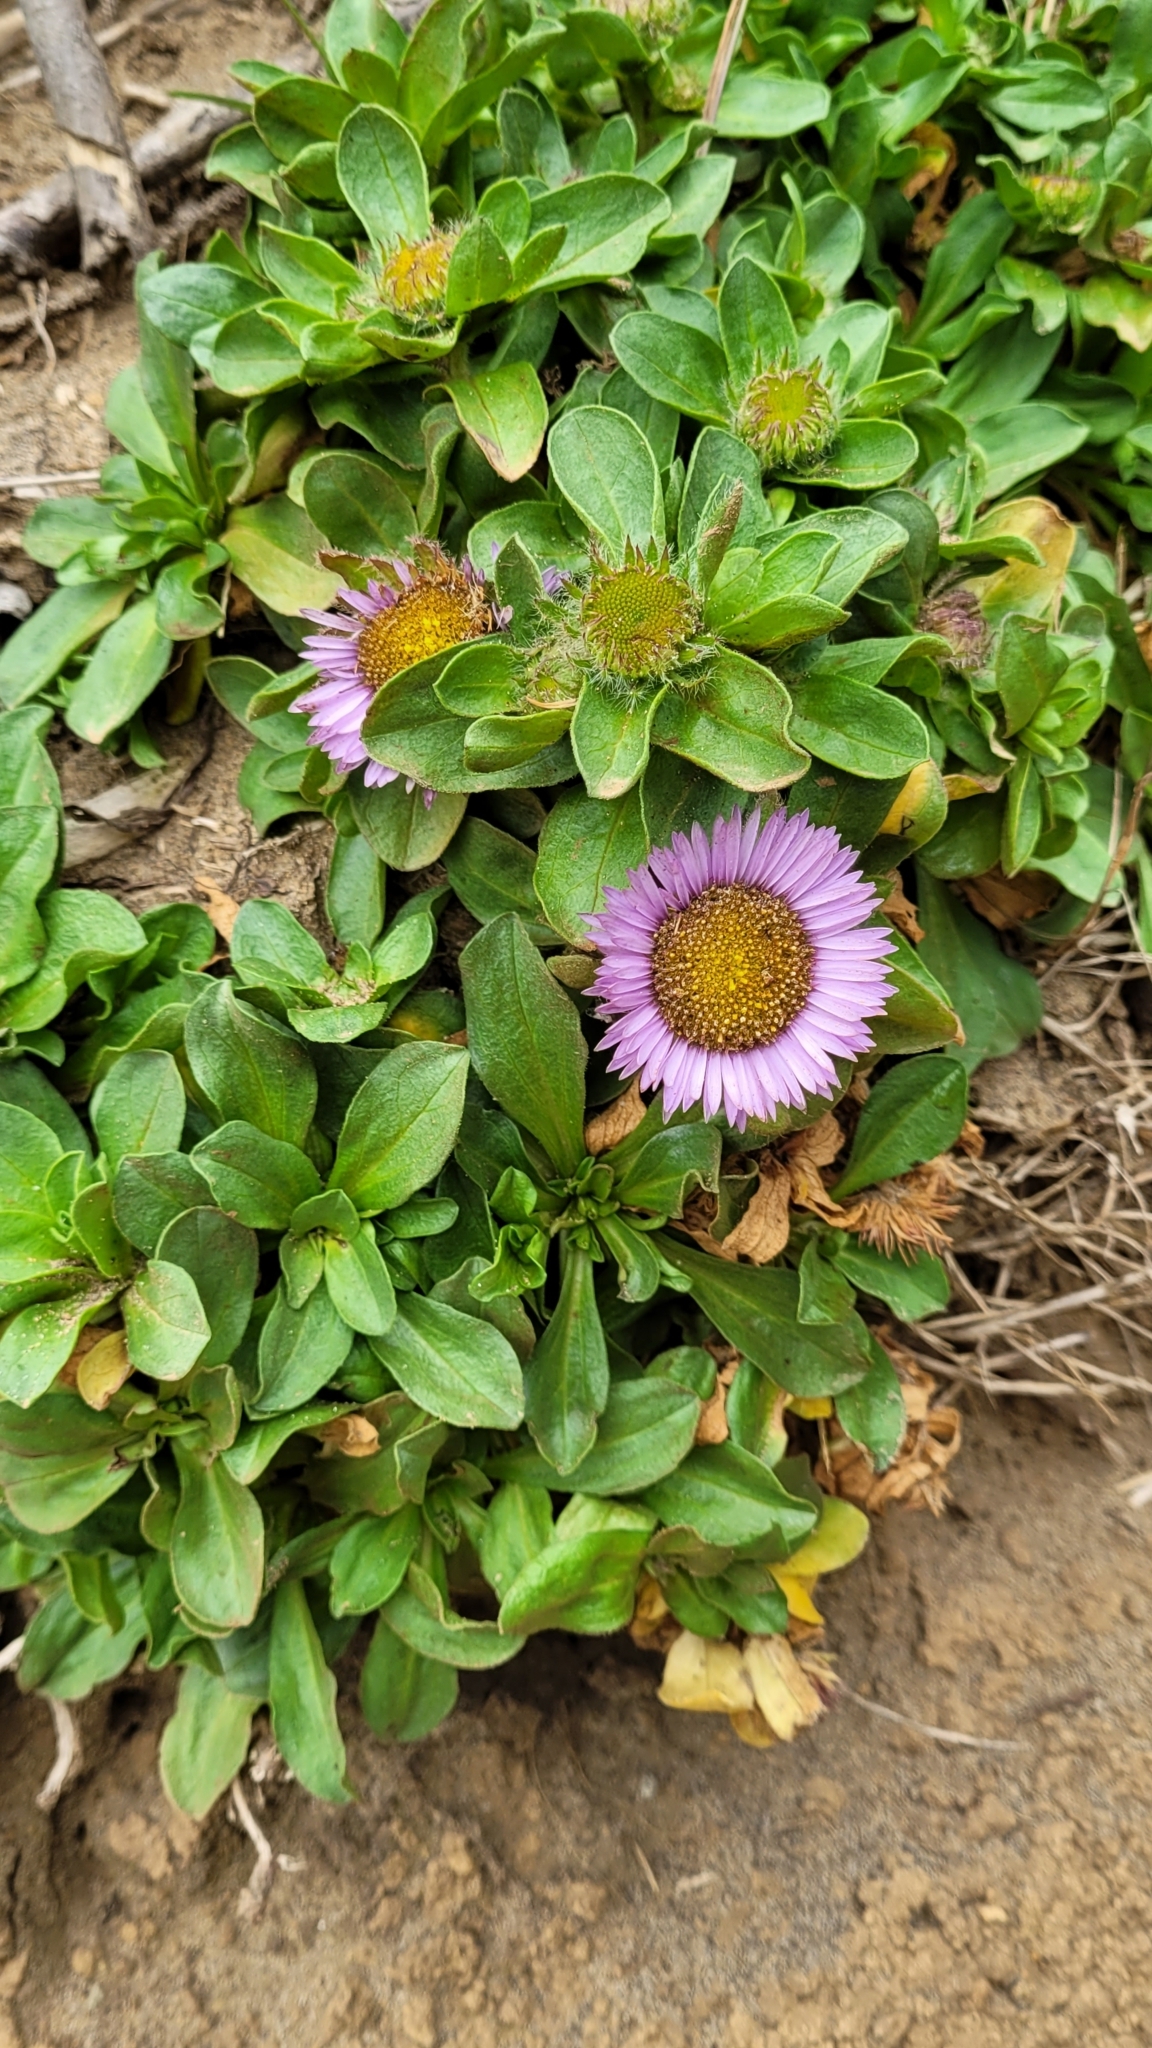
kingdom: Plantae
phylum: Tracheophyta
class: Magnoliopsida
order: Asterales
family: Asteraceae
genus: Erigeron
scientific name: Erigeron glaucus
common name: Seaside daisy
